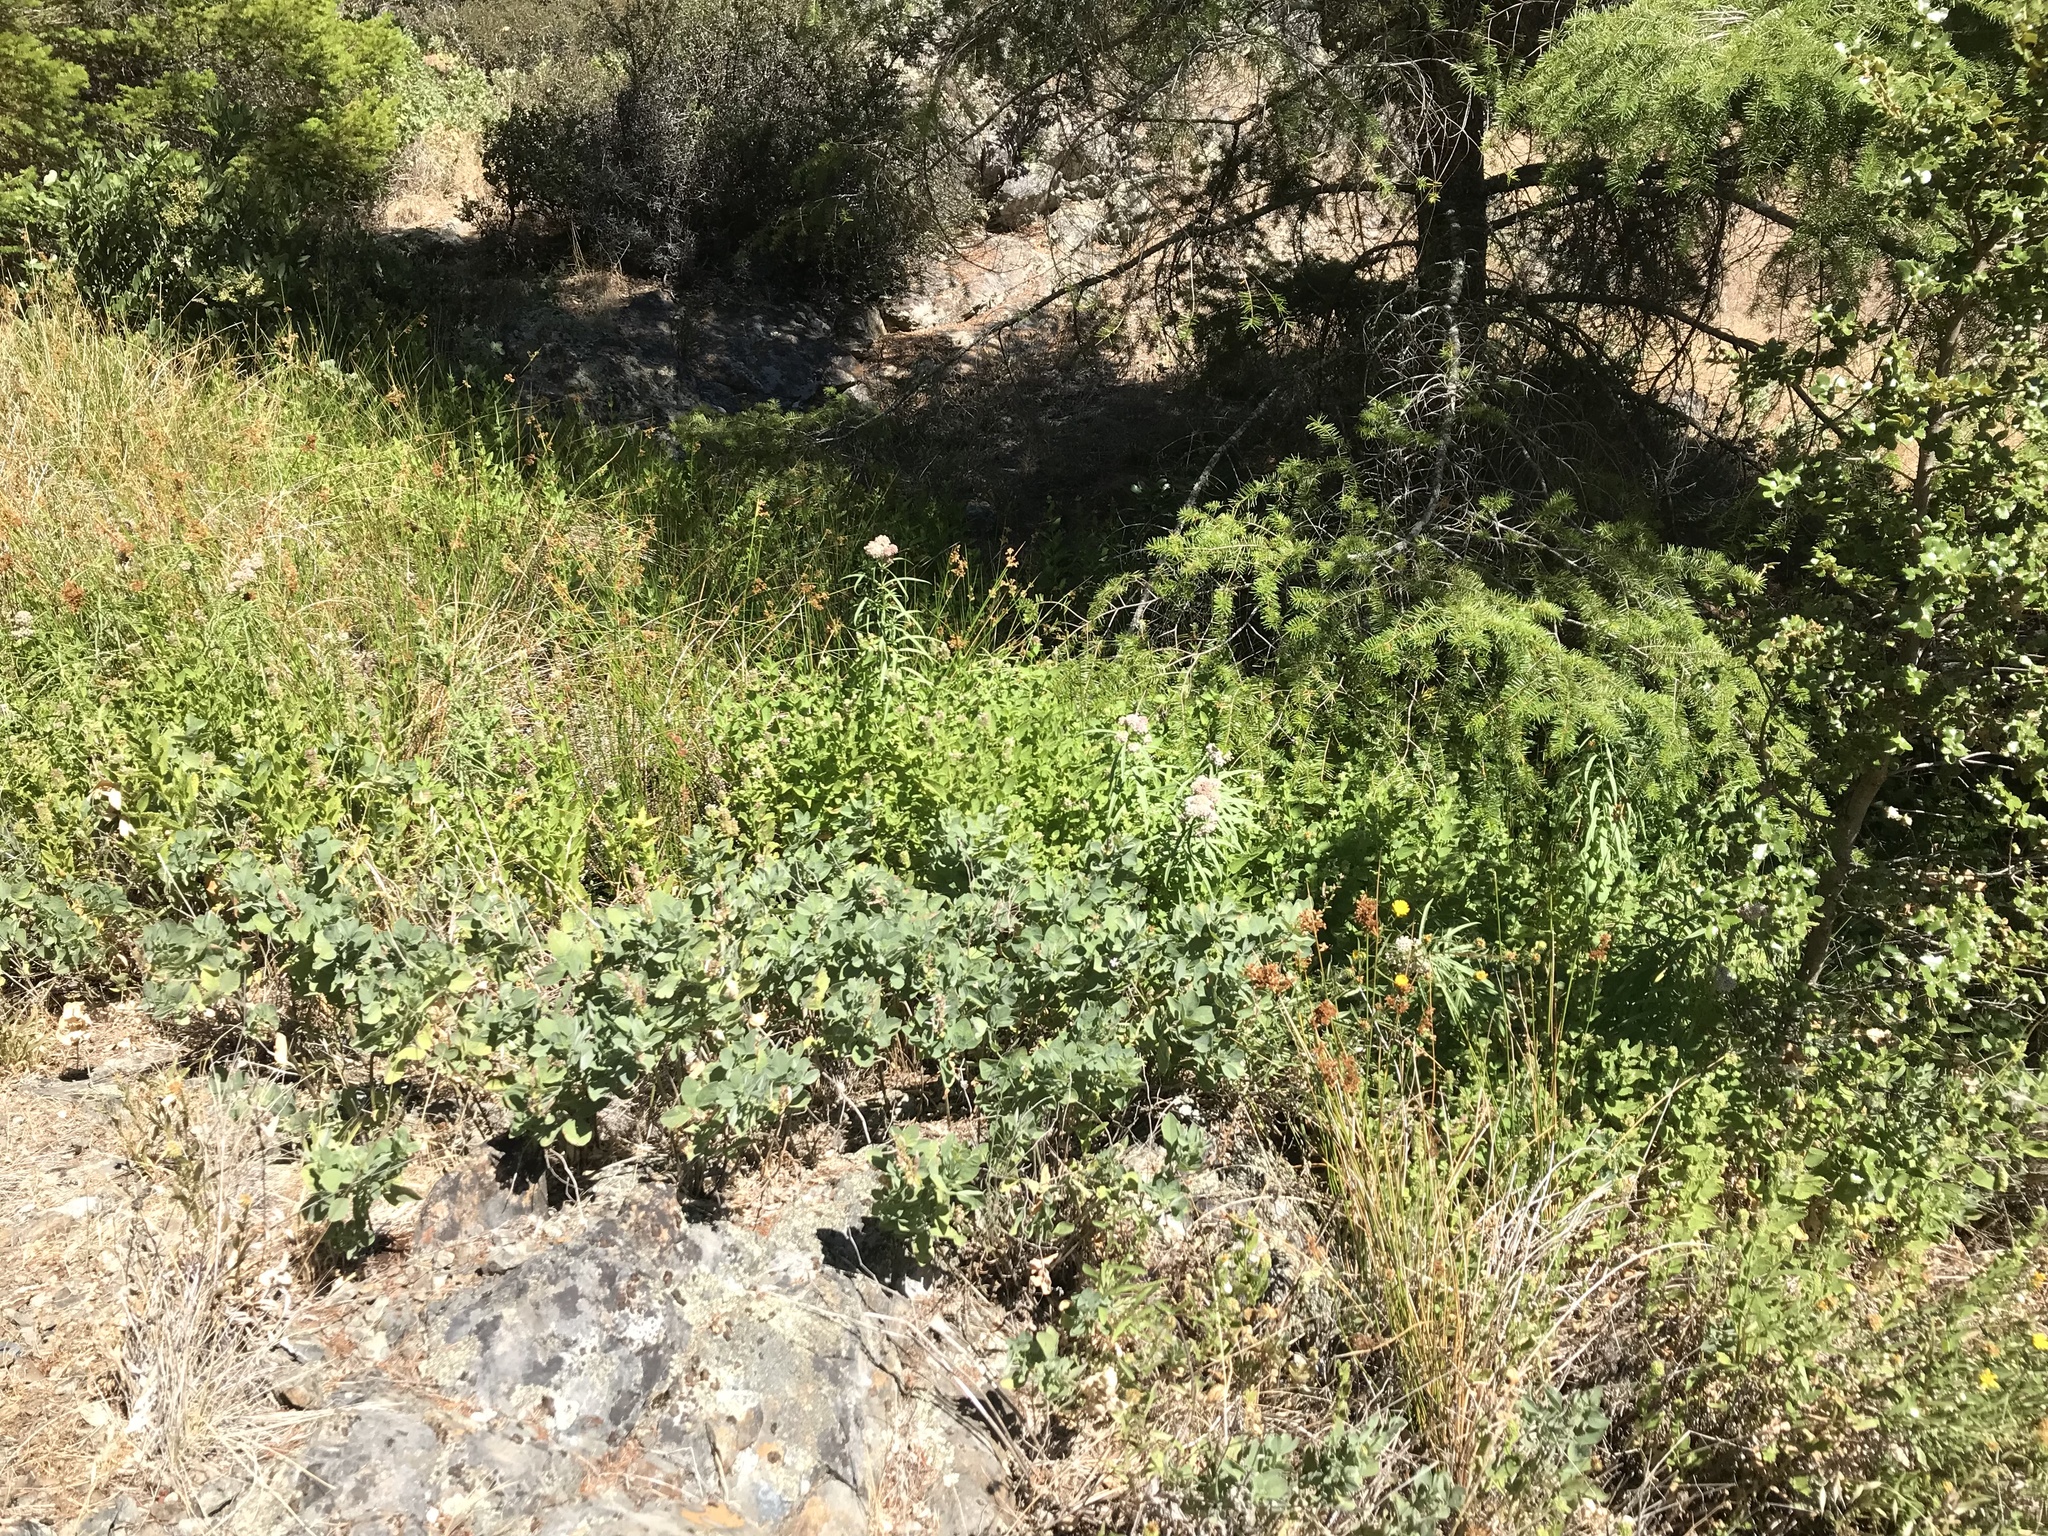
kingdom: Plantae
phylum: Tracheophyta
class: Magnoliopsida
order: Gentianales
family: Apocynaceae
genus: Asclepias
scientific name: Asclepias fascicularis
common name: Mexican milkweed
